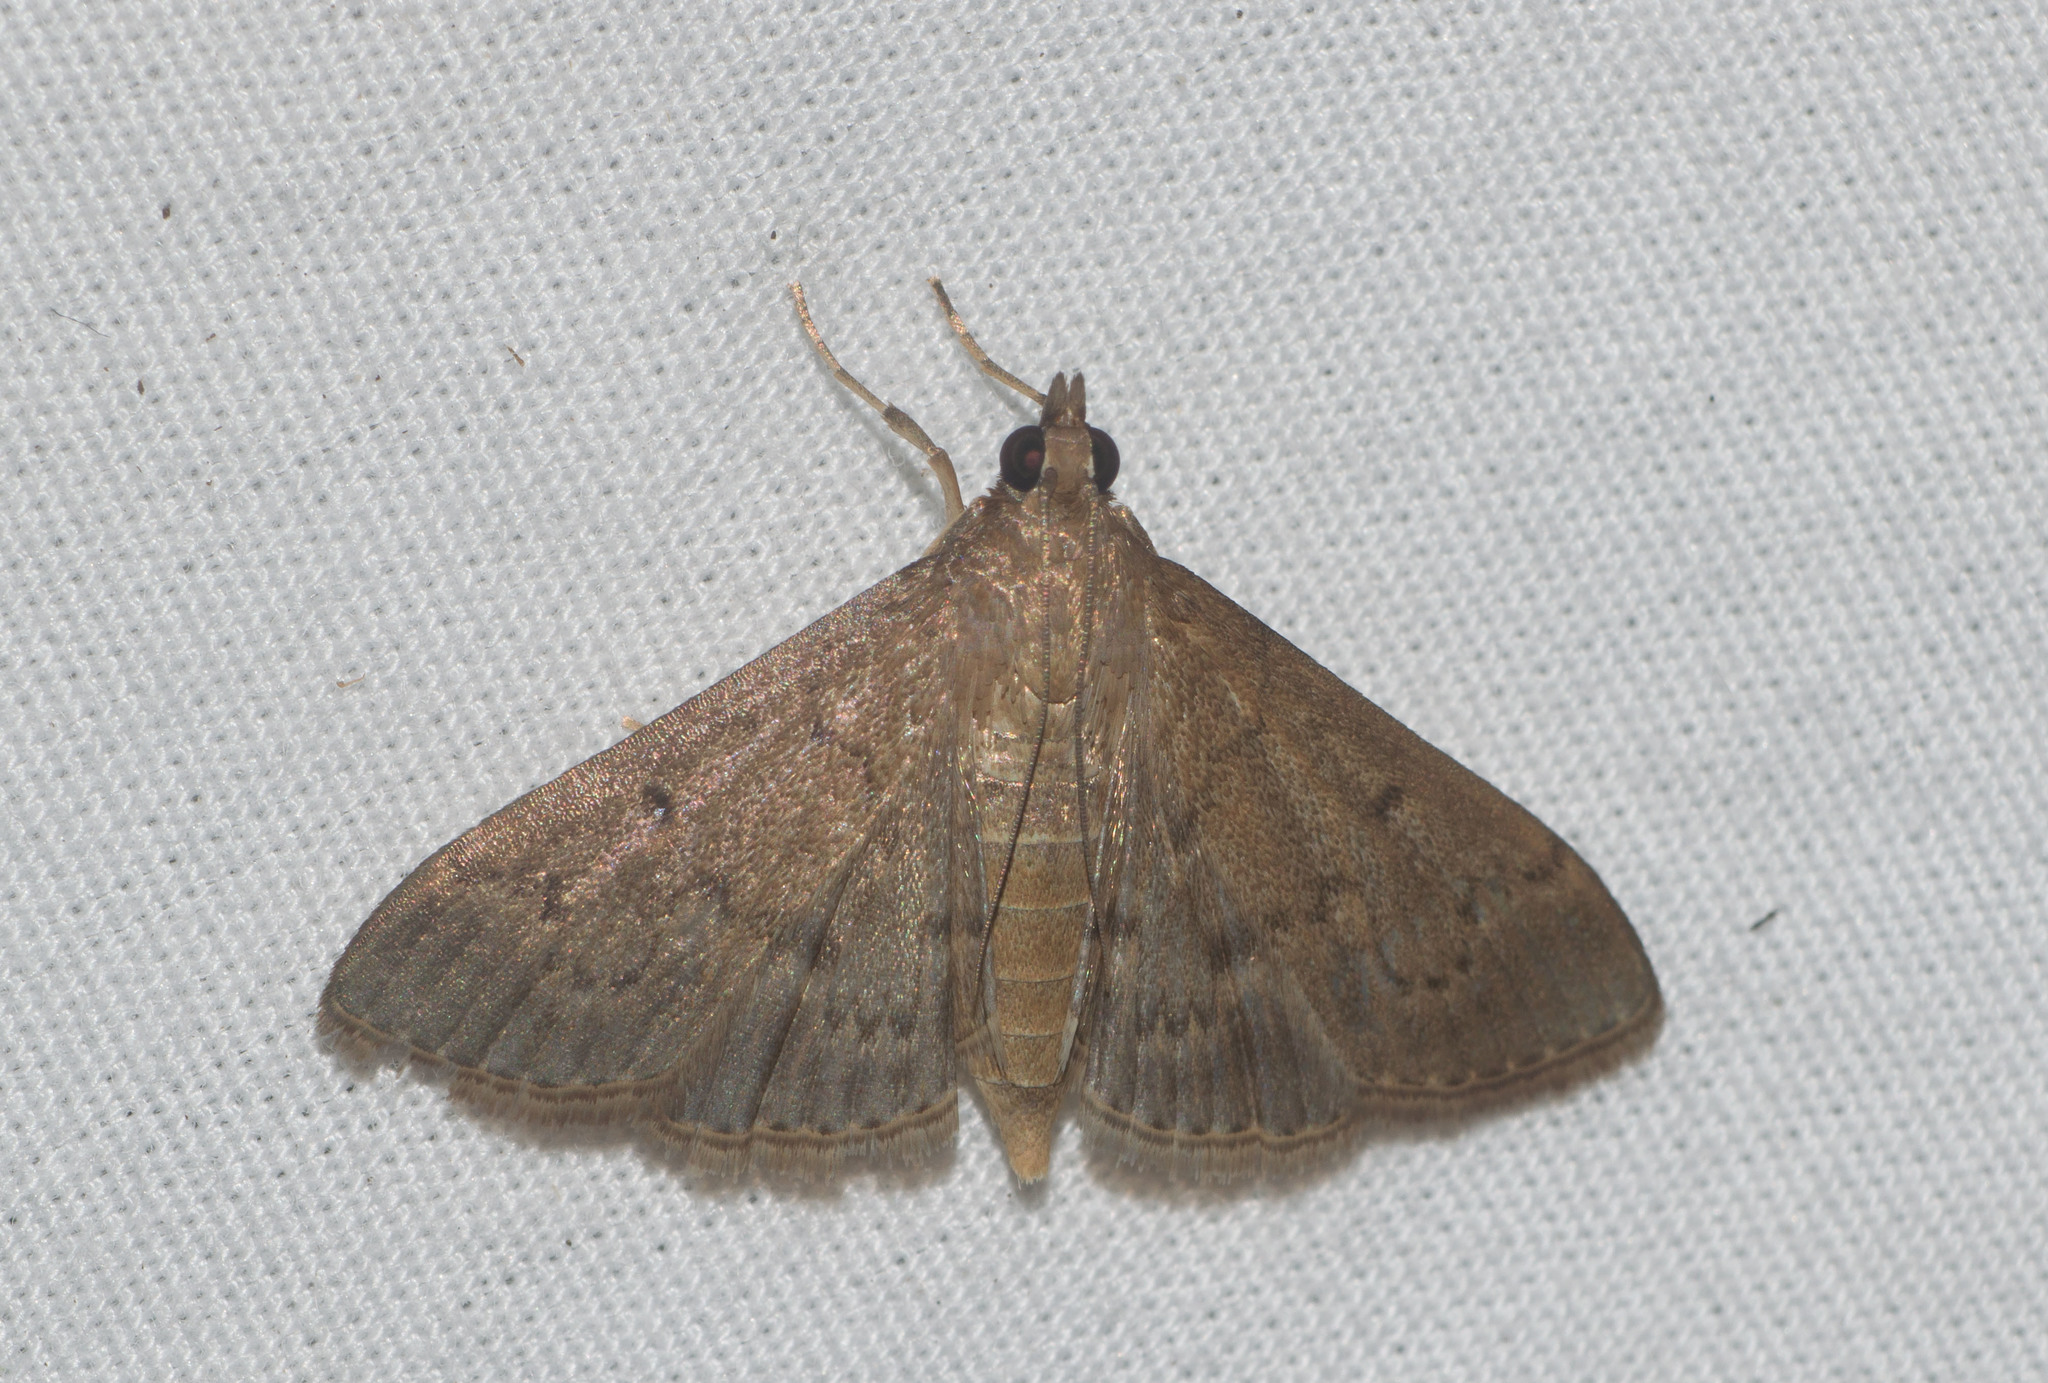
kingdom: Animalia
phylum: Arthropoda
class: Insecta
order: Lepidoptera
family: Crambidae
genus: Herpetogramma
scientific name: Herpetogramma licarsisalis
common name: Grass webworm
